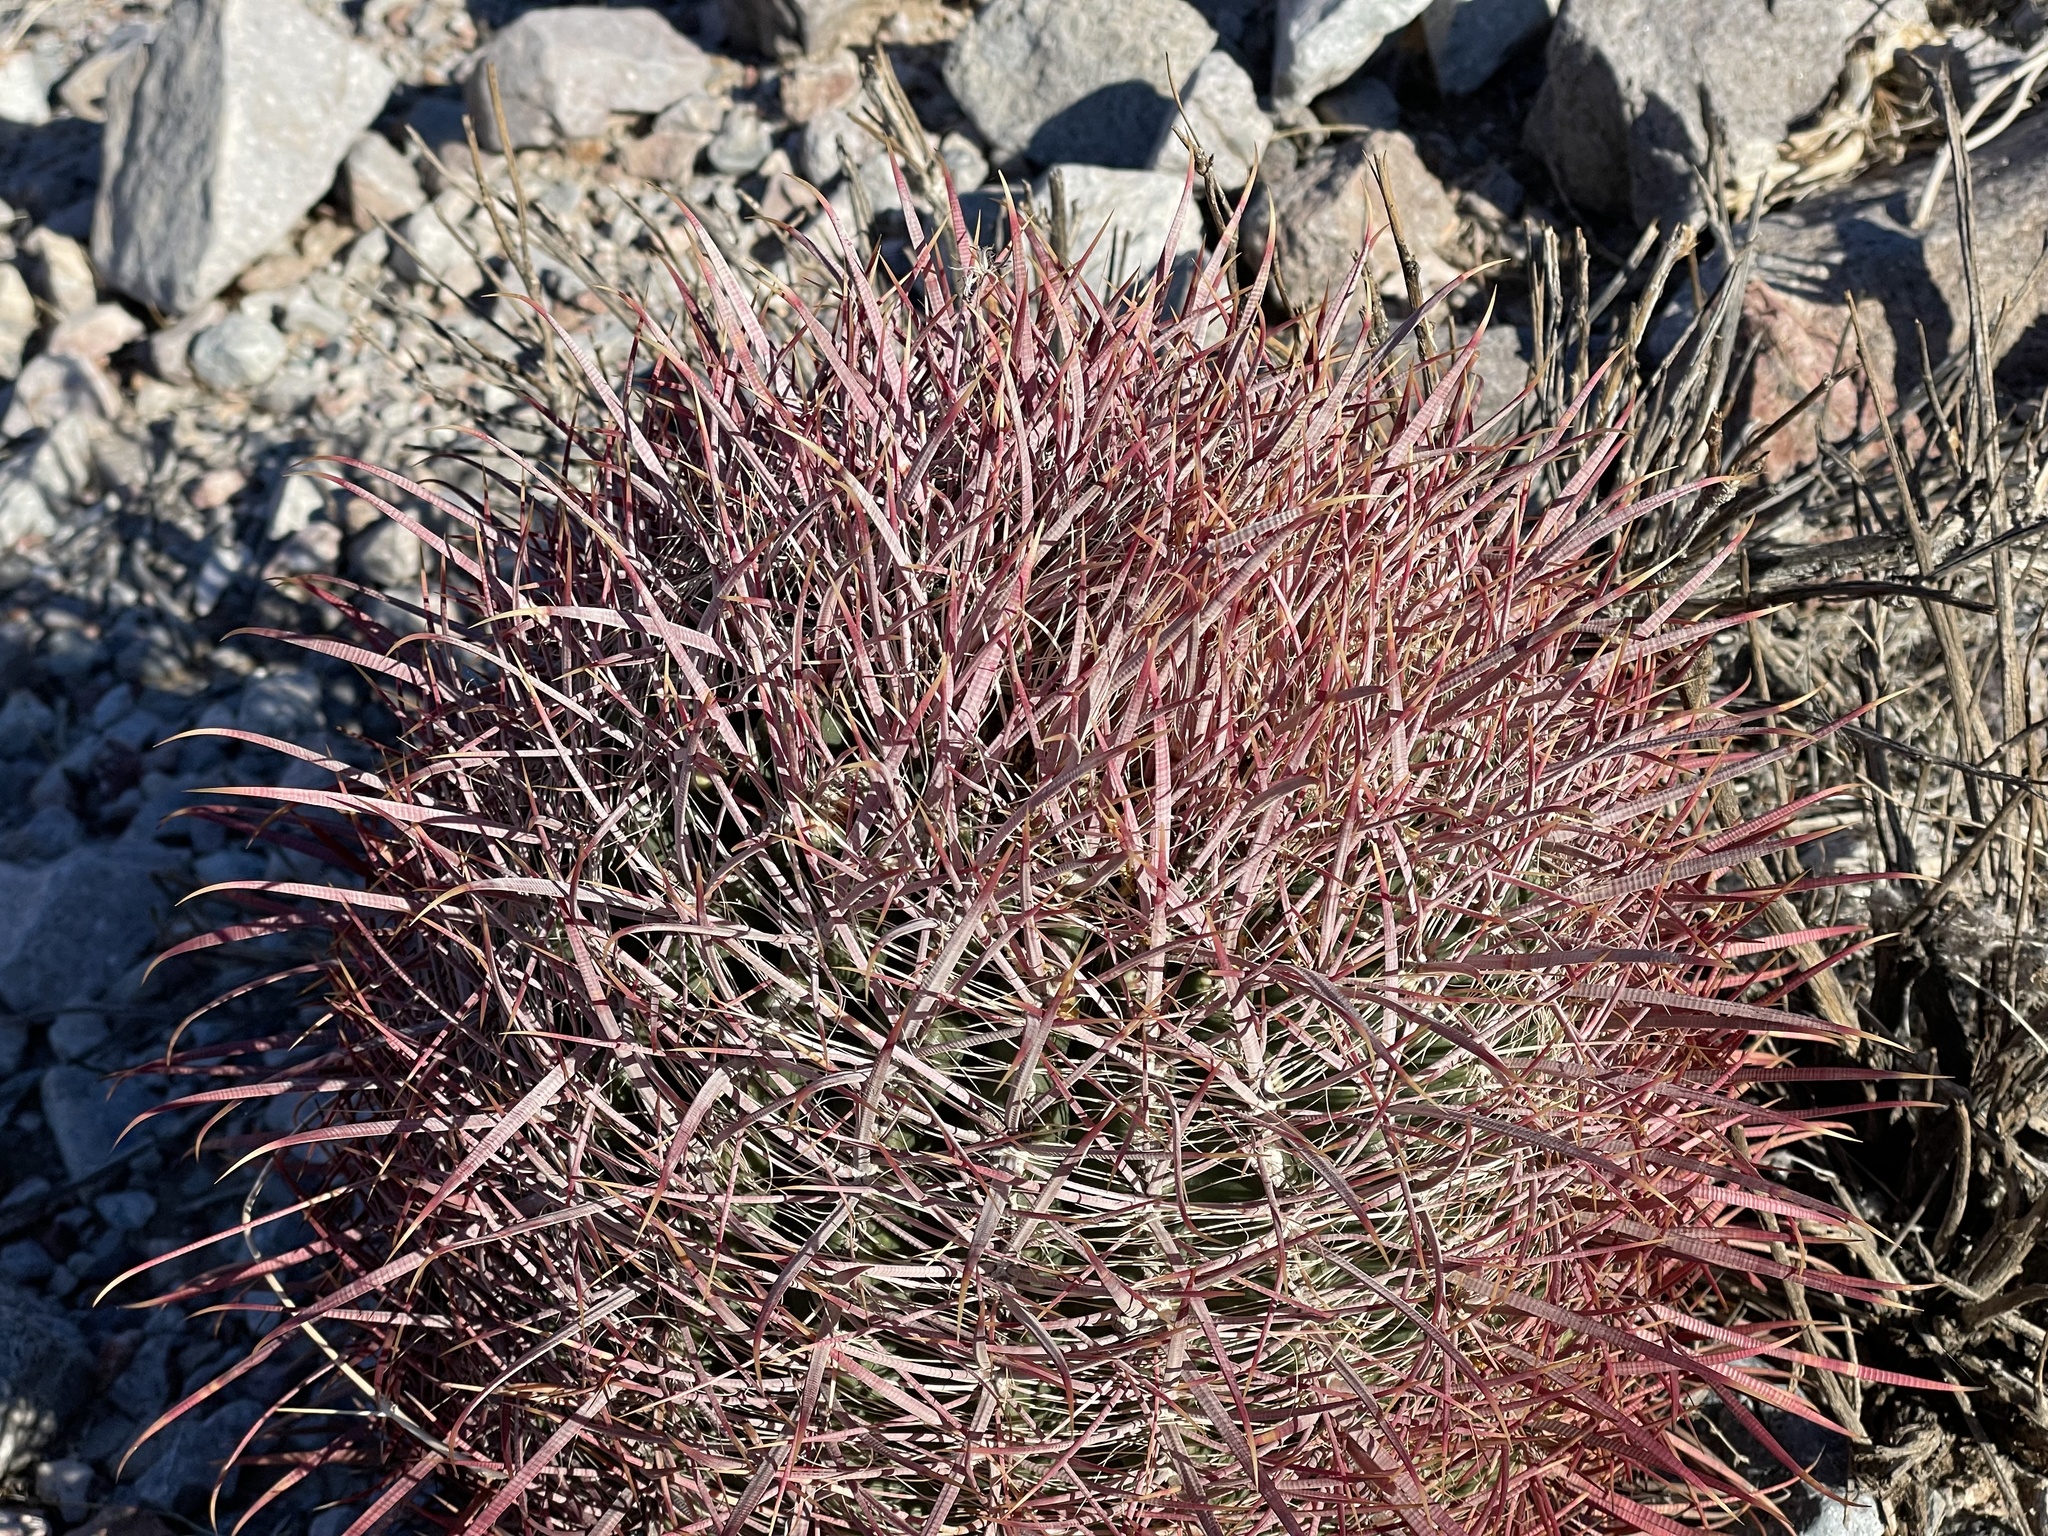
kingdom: Plantae
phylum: Tracheophyta
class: Magnoliopsida
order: Caryophyllales
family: Cactaceae
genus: Ferocactus
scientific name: Ferocactus cylindraceus
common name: California barrel cactus
